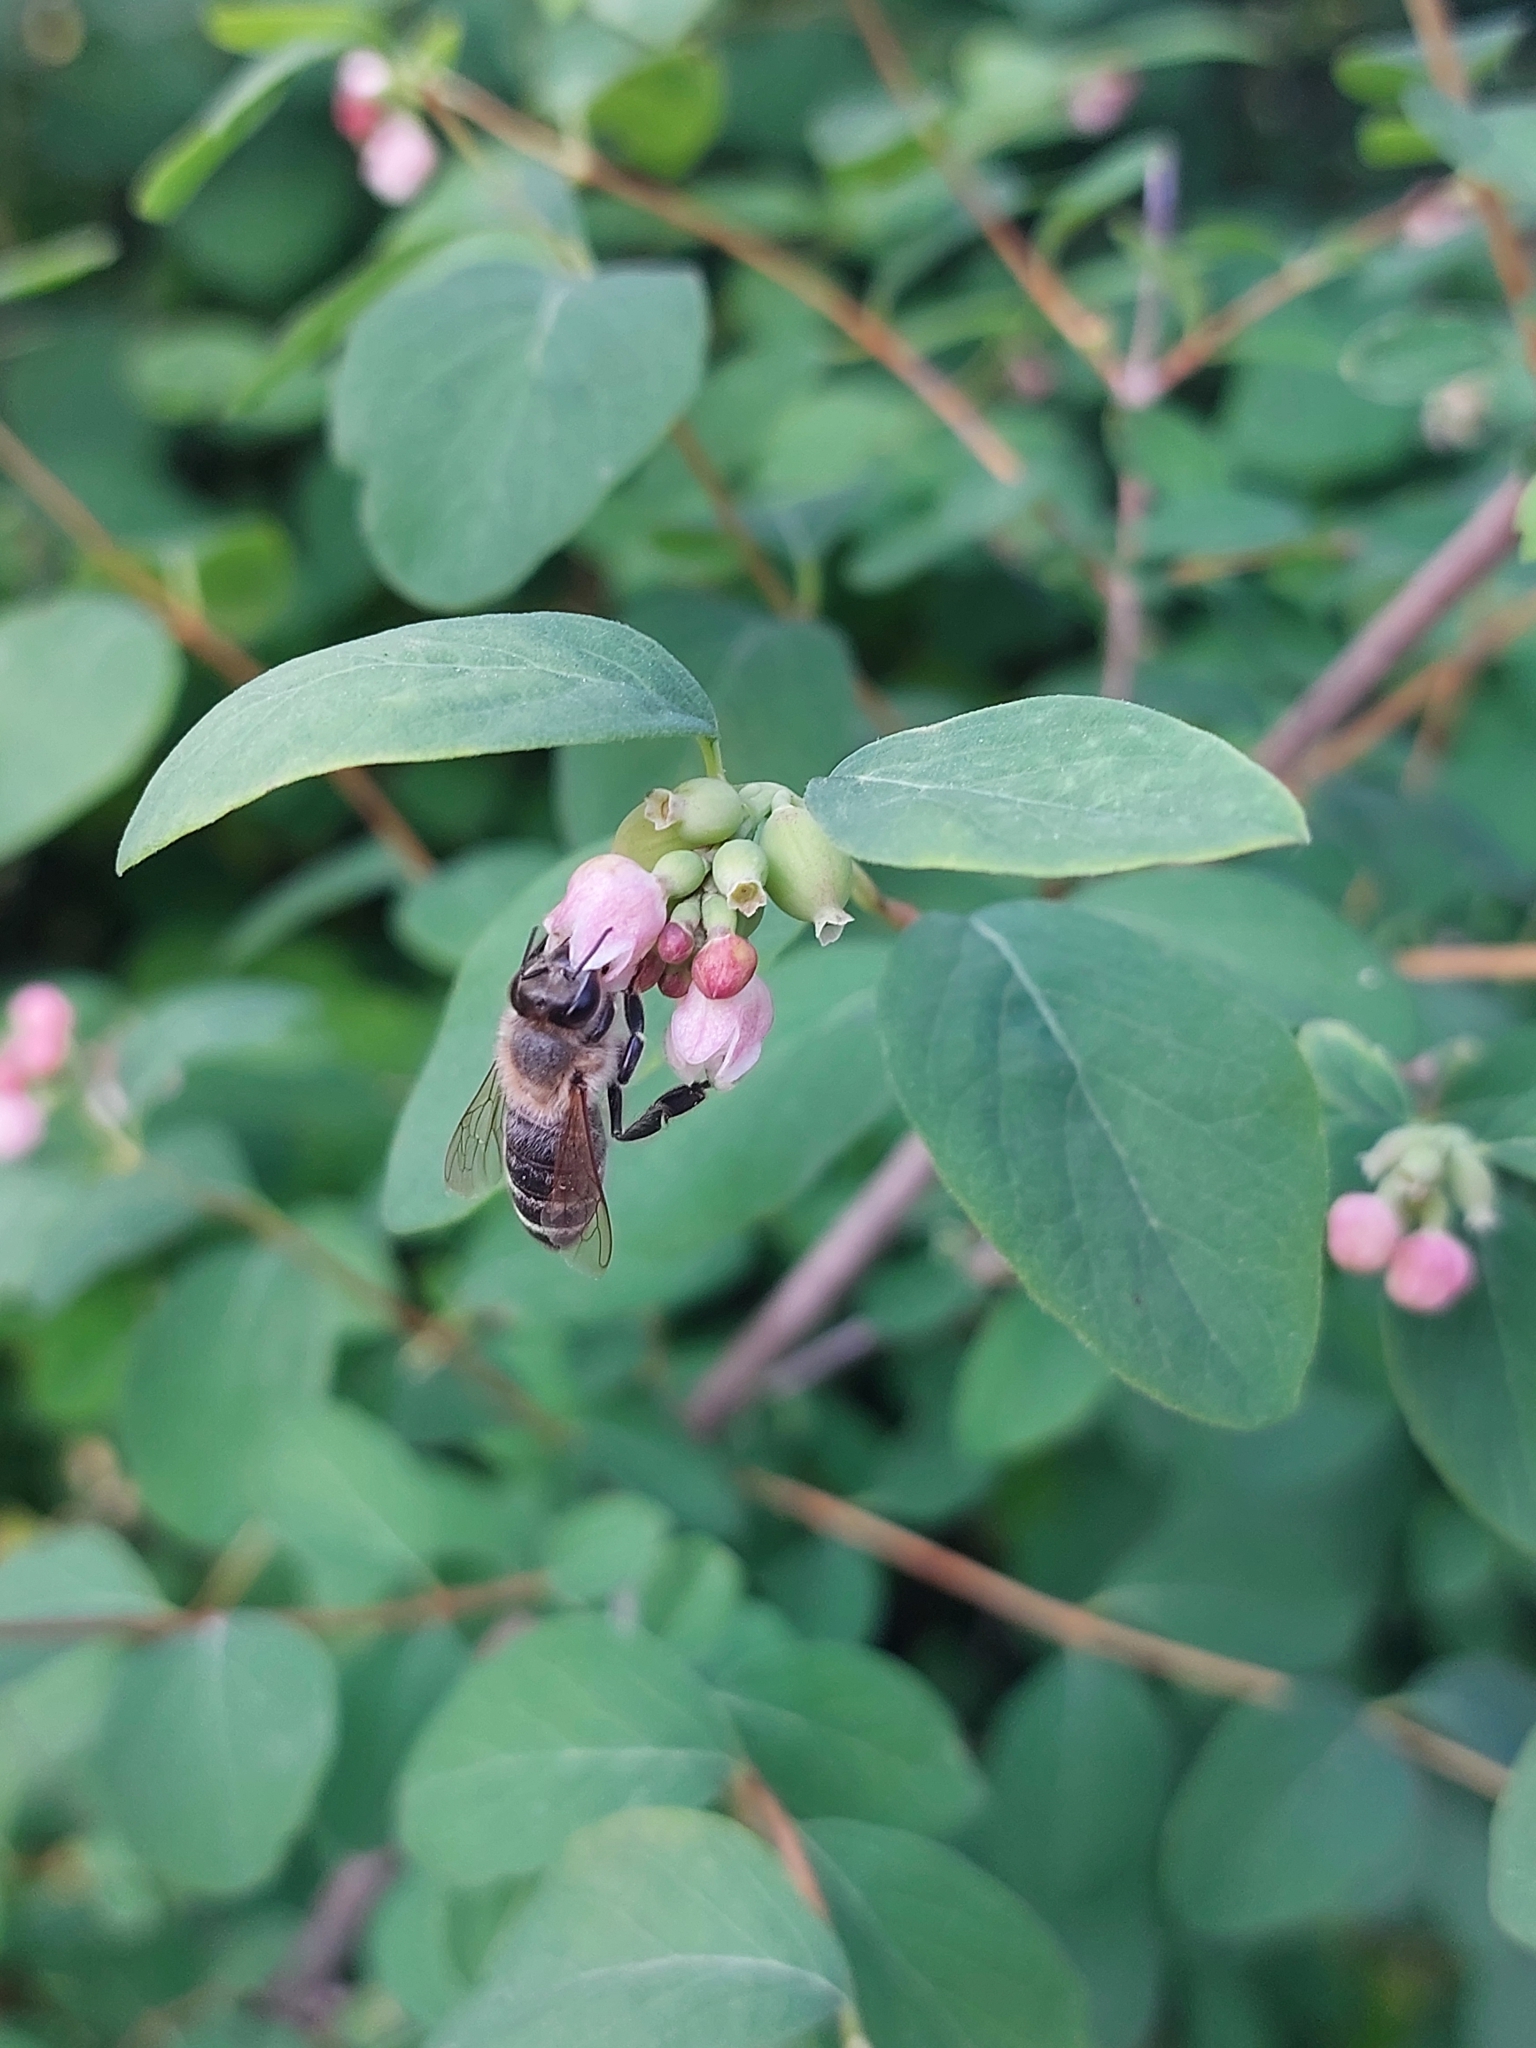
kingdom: Animalia
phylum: Arthropoda
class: Insecta
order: Hymenoptera
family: Apidae
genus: Apis
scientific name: Apis mellifera
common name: Honey bee
